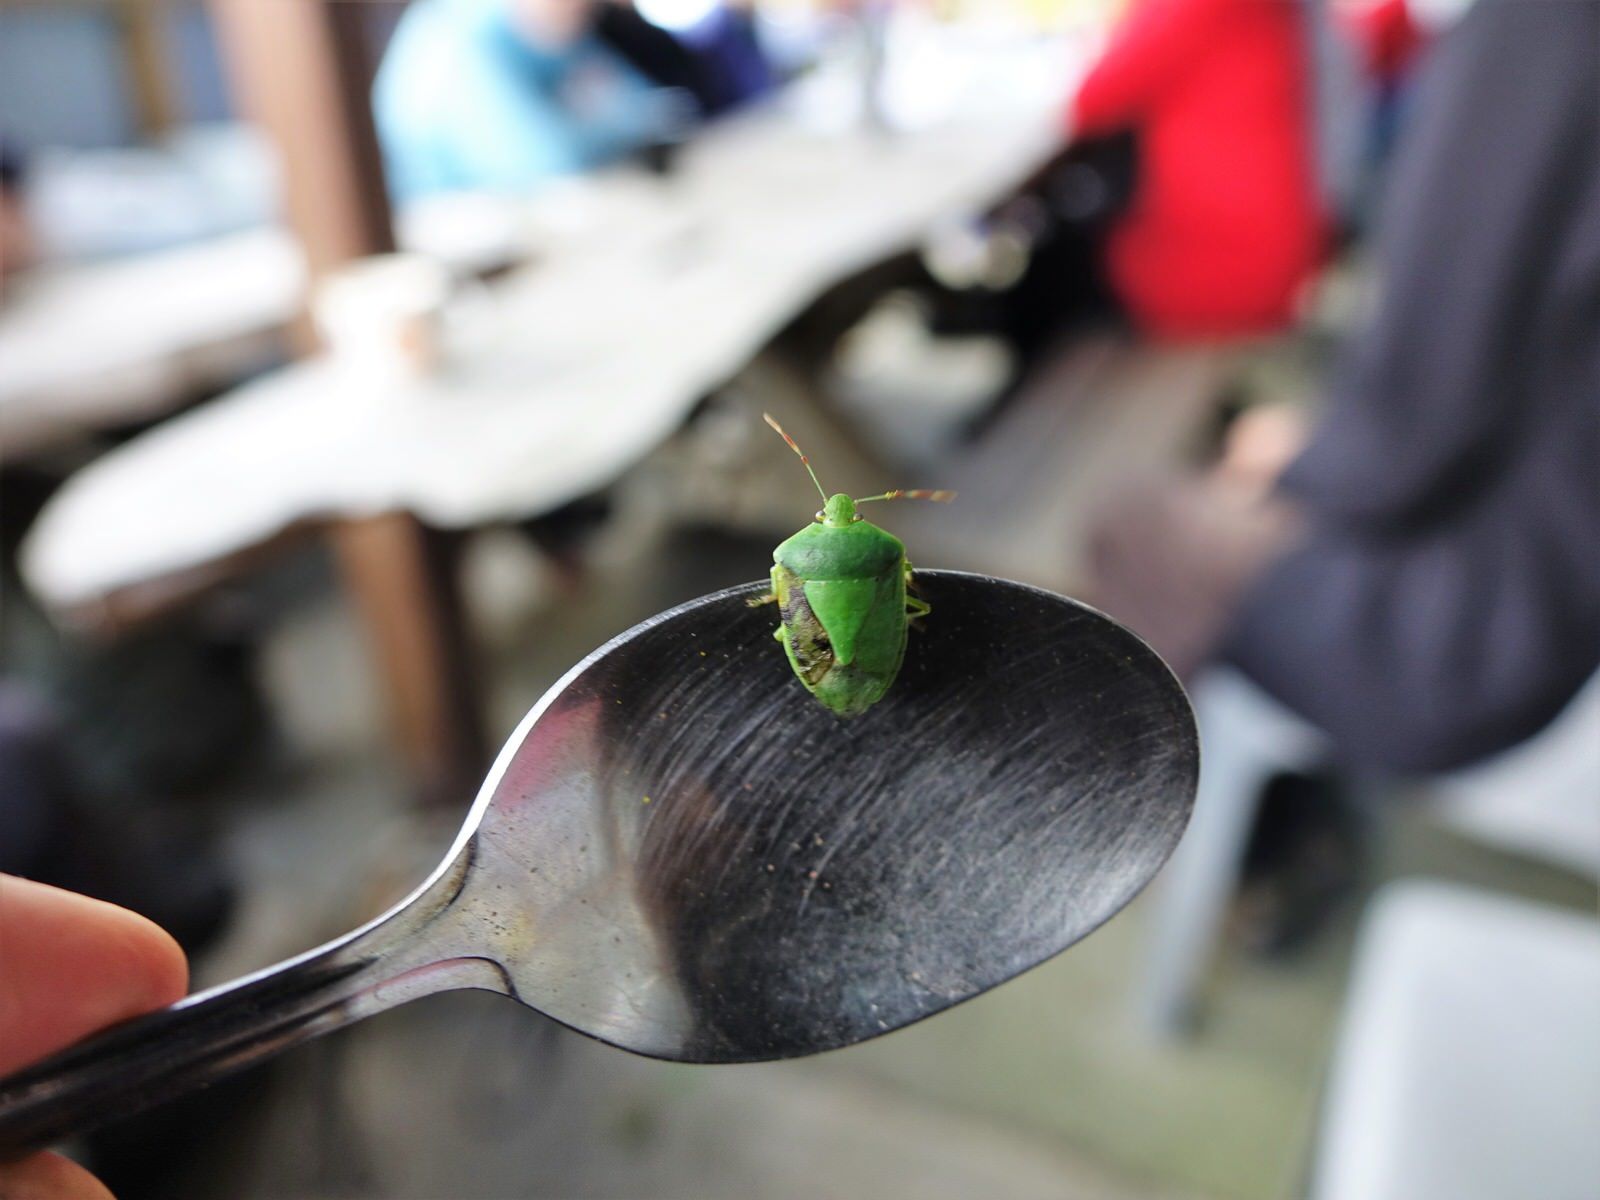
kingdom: Animalia
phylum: Arthropoda
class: Insecta
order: Hemiptera
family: Pentatomidae
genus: Nezara
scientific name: Nezara viridula
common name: Southern green stink bug
